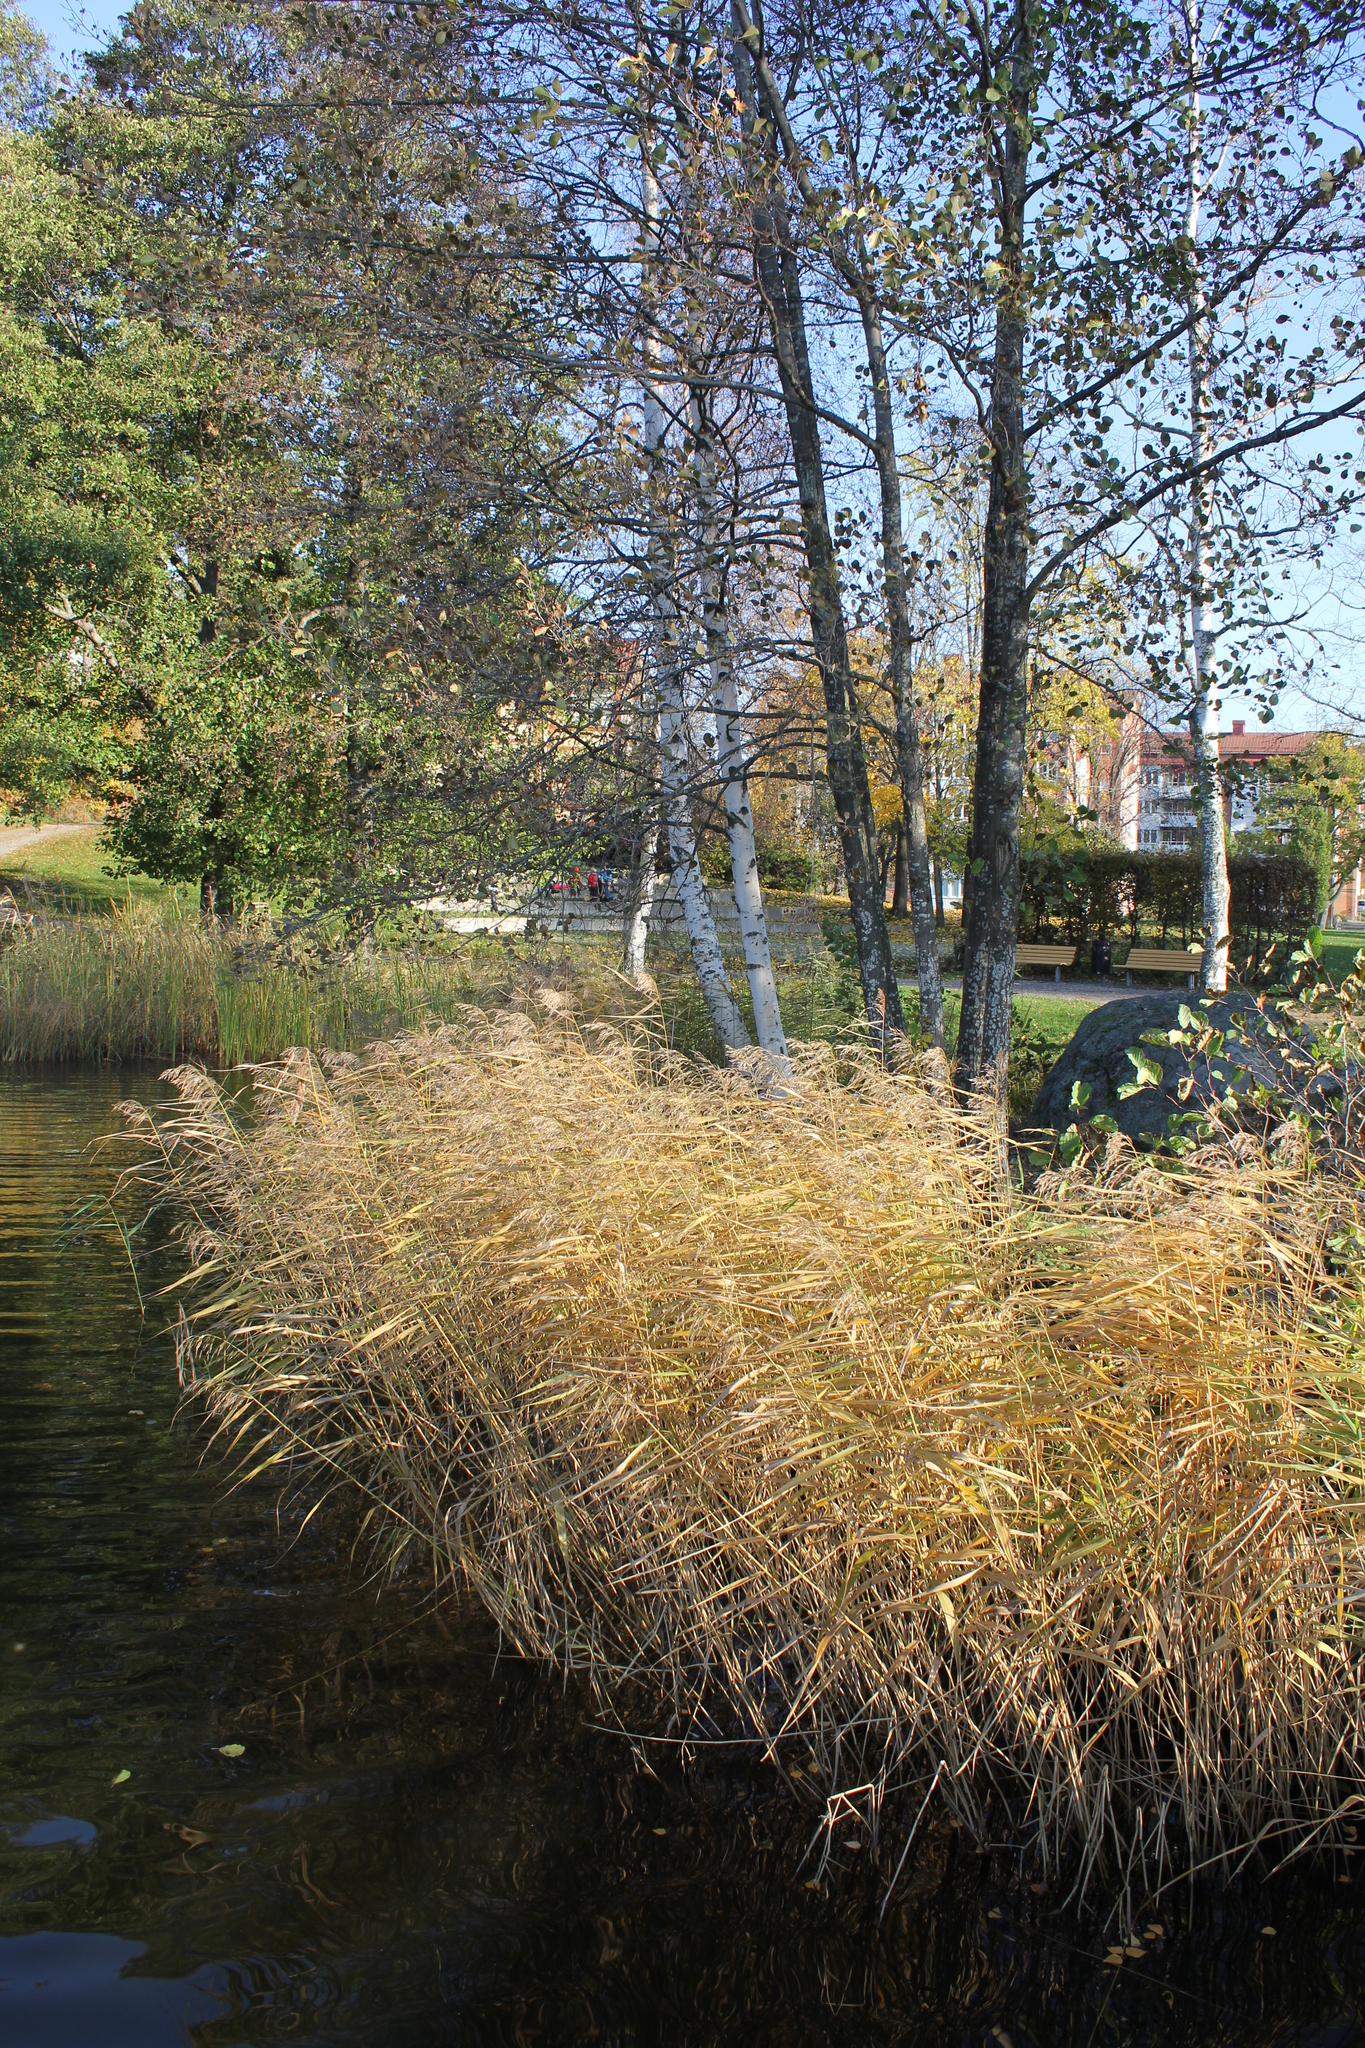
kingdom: Plantae
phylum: Tracheophyta
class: Liliopsida
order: Poales
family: Poaceae
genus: Phragmites
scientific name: Phragmites australis
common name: Common reed
